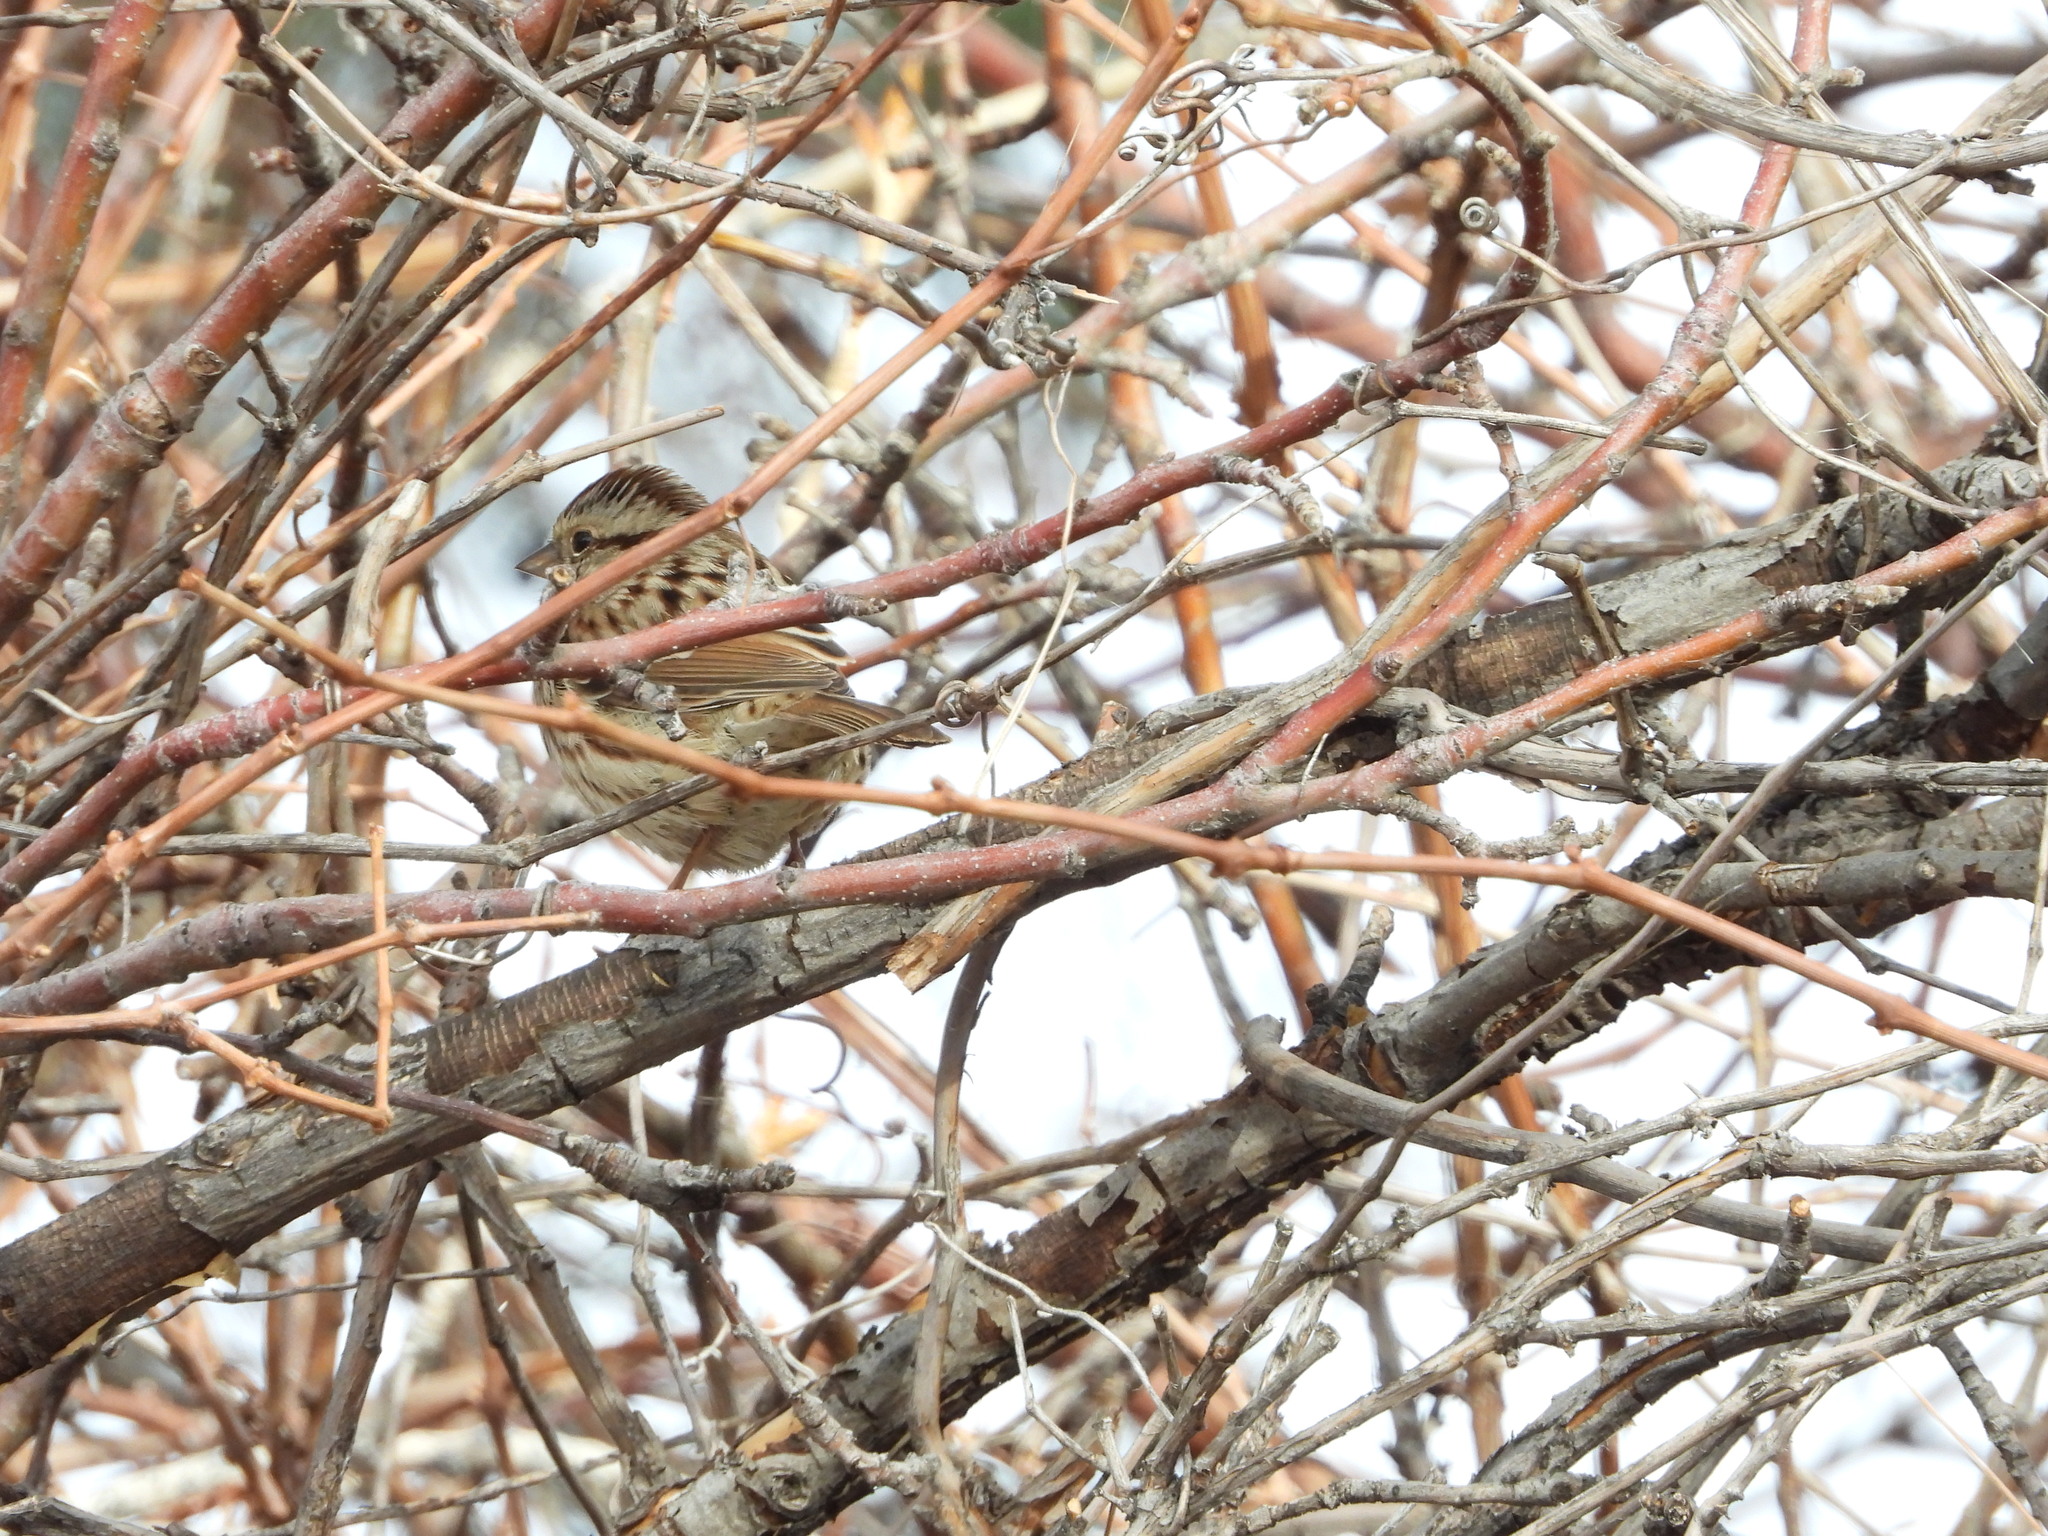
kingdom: Animalia
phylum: Chordata
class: Aves
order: Passeriformes
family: Passerellidae
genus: Melospiza
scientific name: Melospiza melodia
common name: Song sparrow
